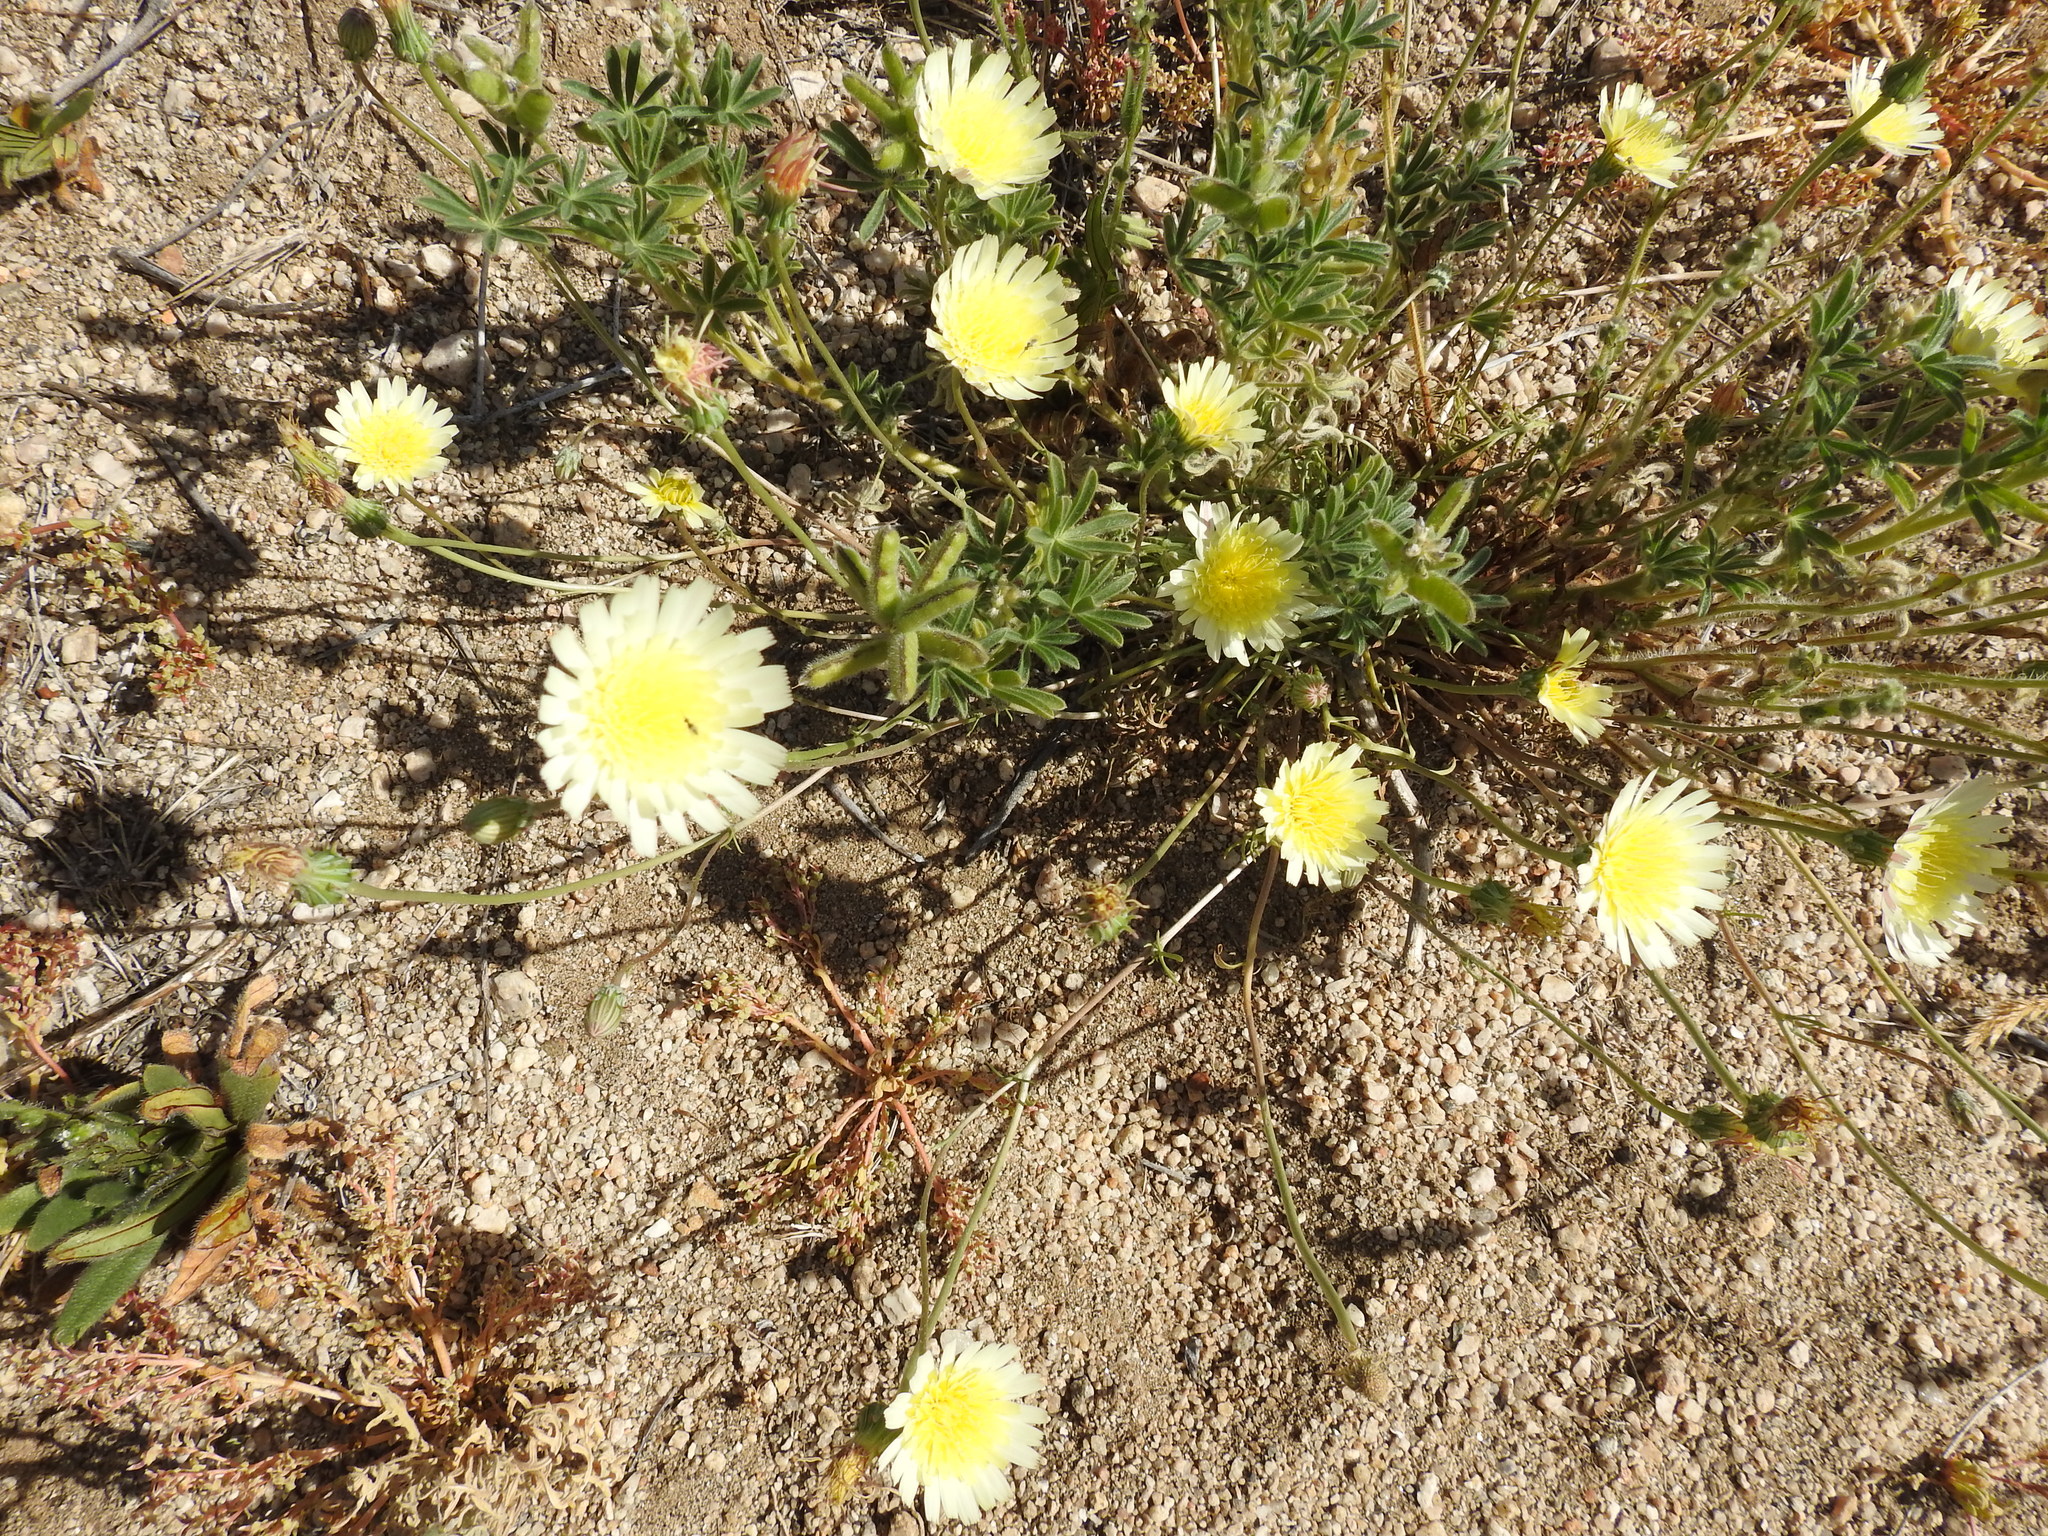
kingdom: Plantae
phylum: Tracheophyta
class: Magnoliopsida
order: Asterales
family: Asteraceae
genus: Malacothrix
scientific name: Malacothrix glabrata
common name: Smooth desert-dandelion
